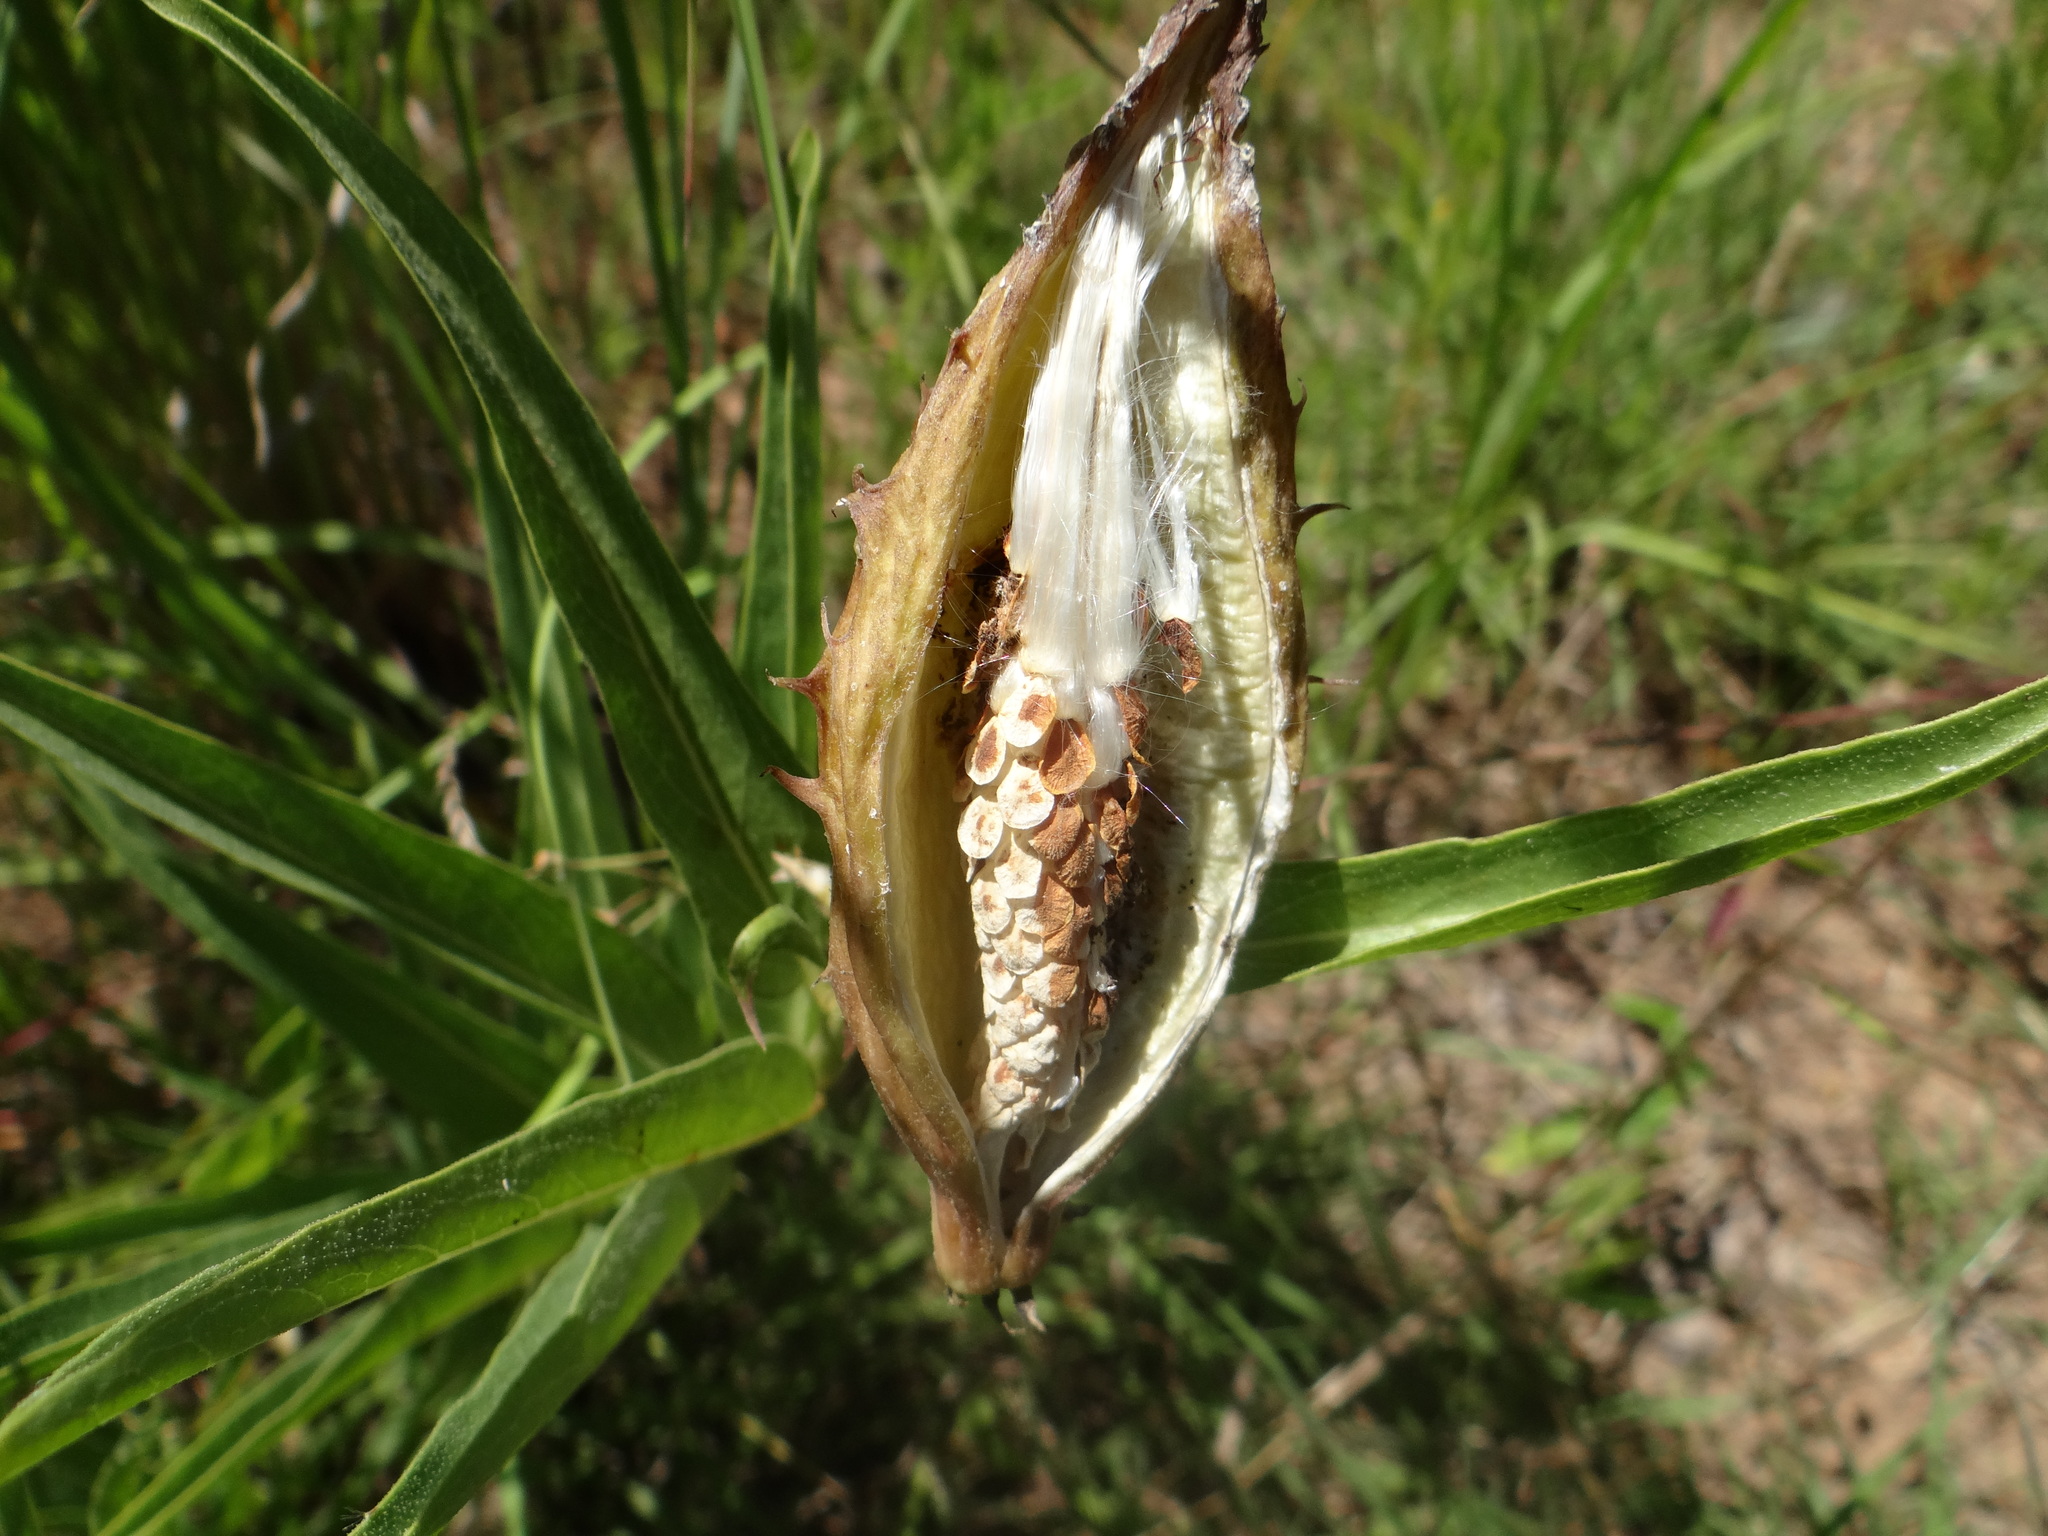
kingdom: Plantae
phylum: Tracheophyta
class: Magnoliopsida
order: Gentianales
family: Apocynaceae
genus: Asclepias
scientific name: Asclepias asperula
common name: Antelope horns
